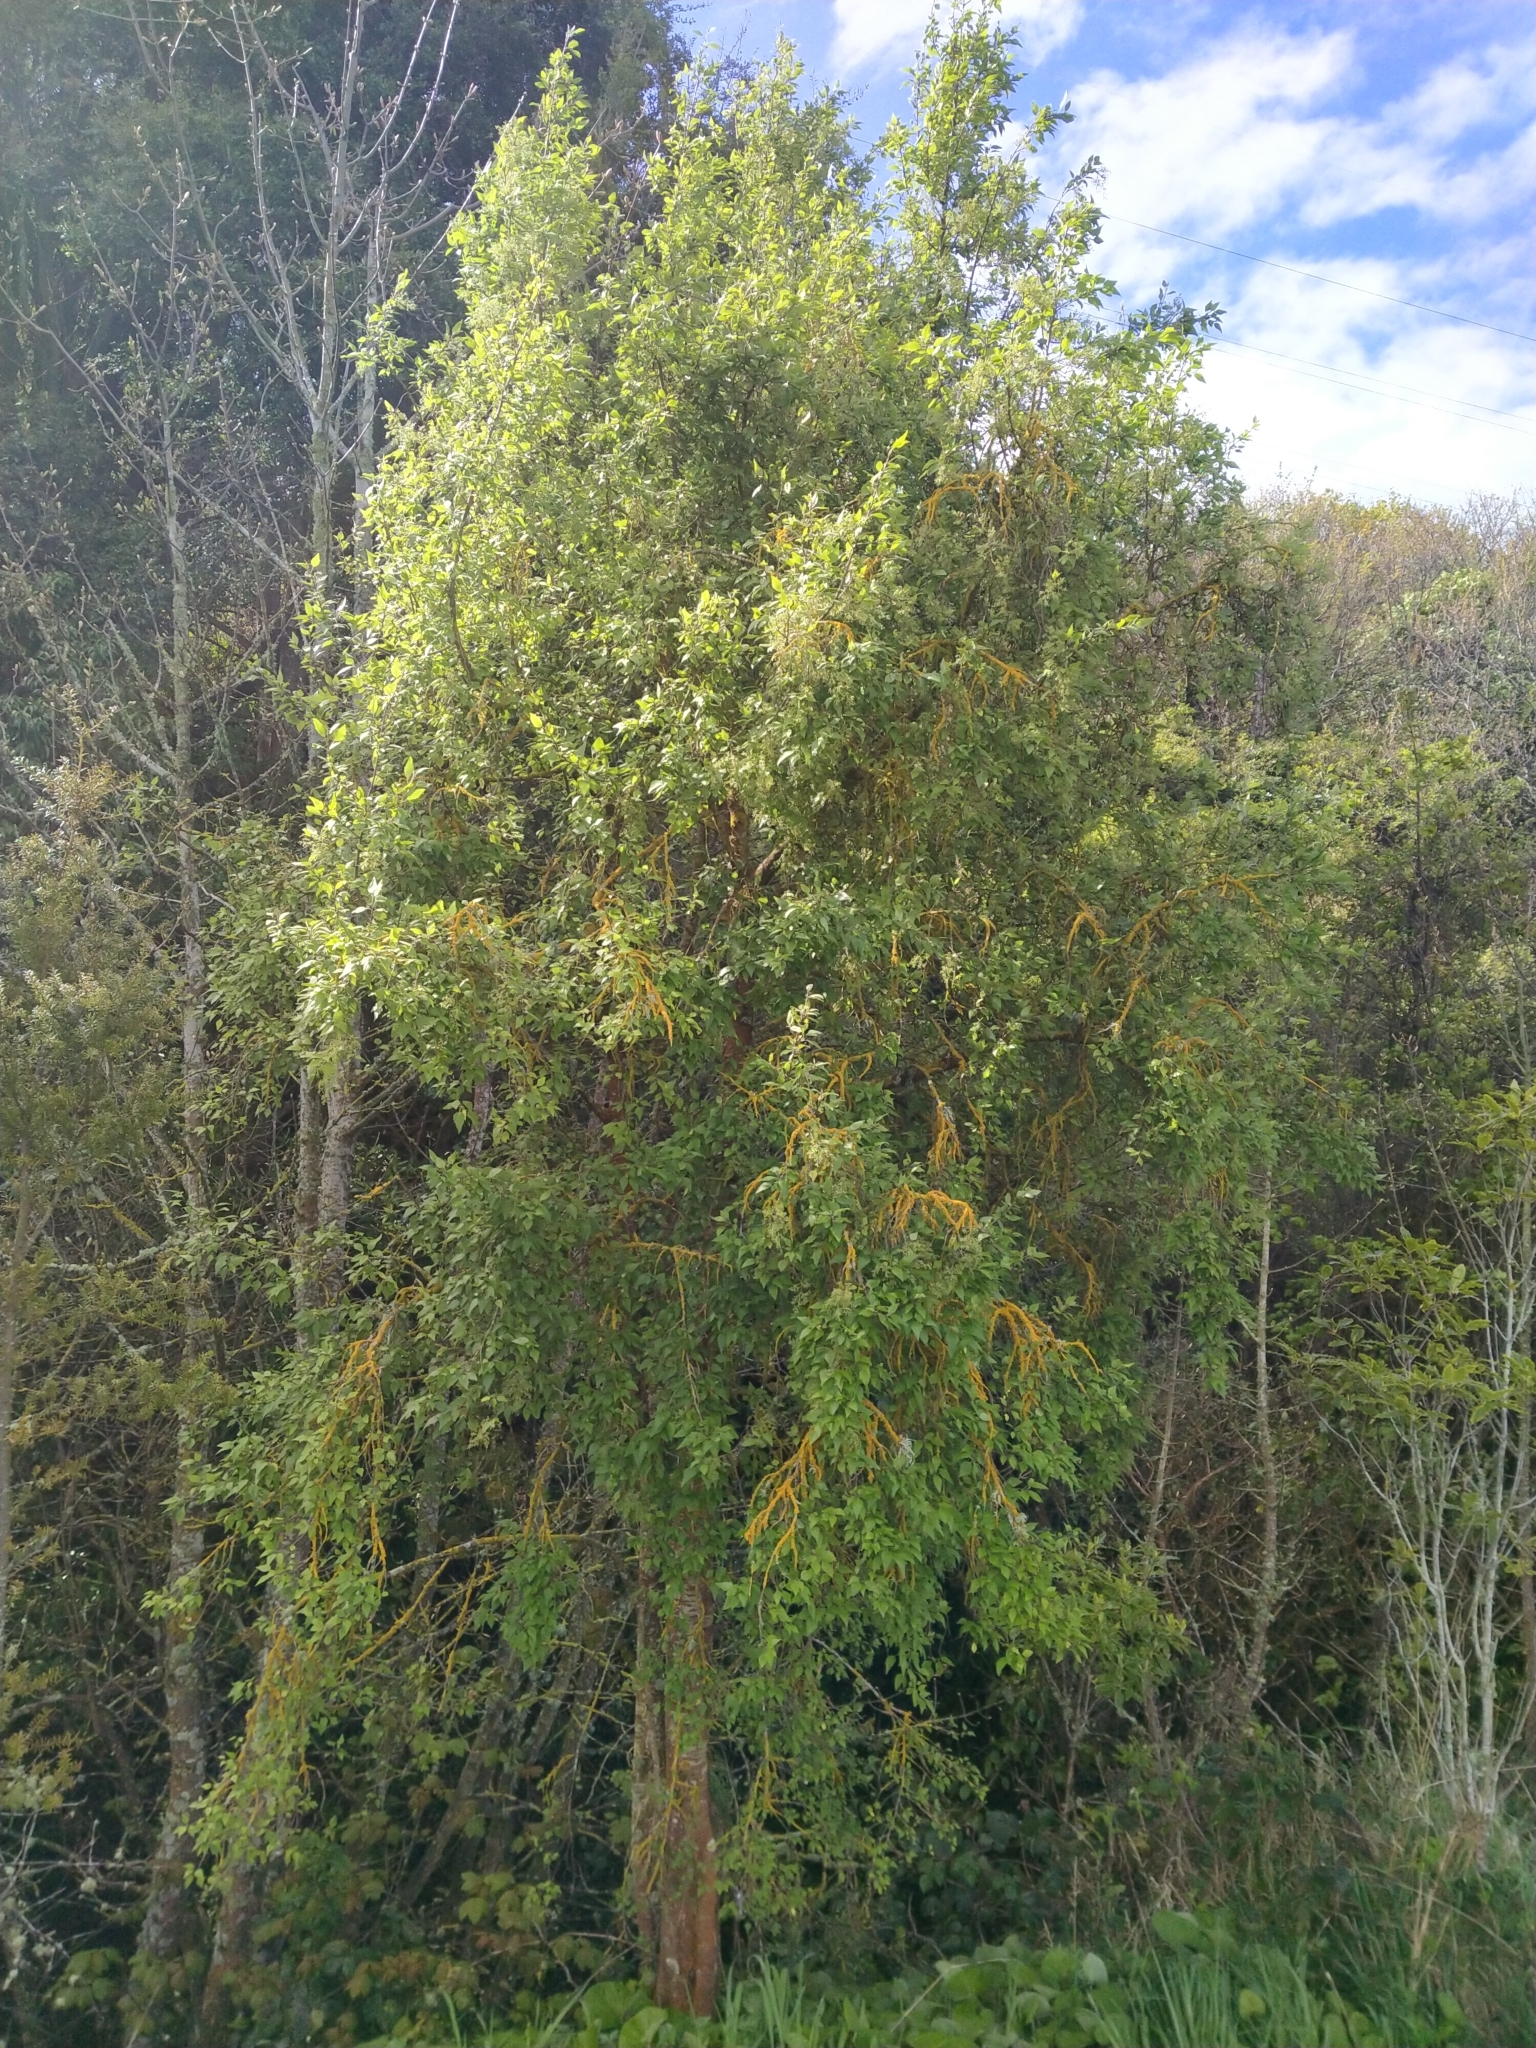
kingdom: Plantae
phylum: Tracheophyta
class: Magnoliopsida
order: Malvales
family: Malvaceae
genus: Plagianthus
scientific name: Plagianthus regius
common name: Manatu
